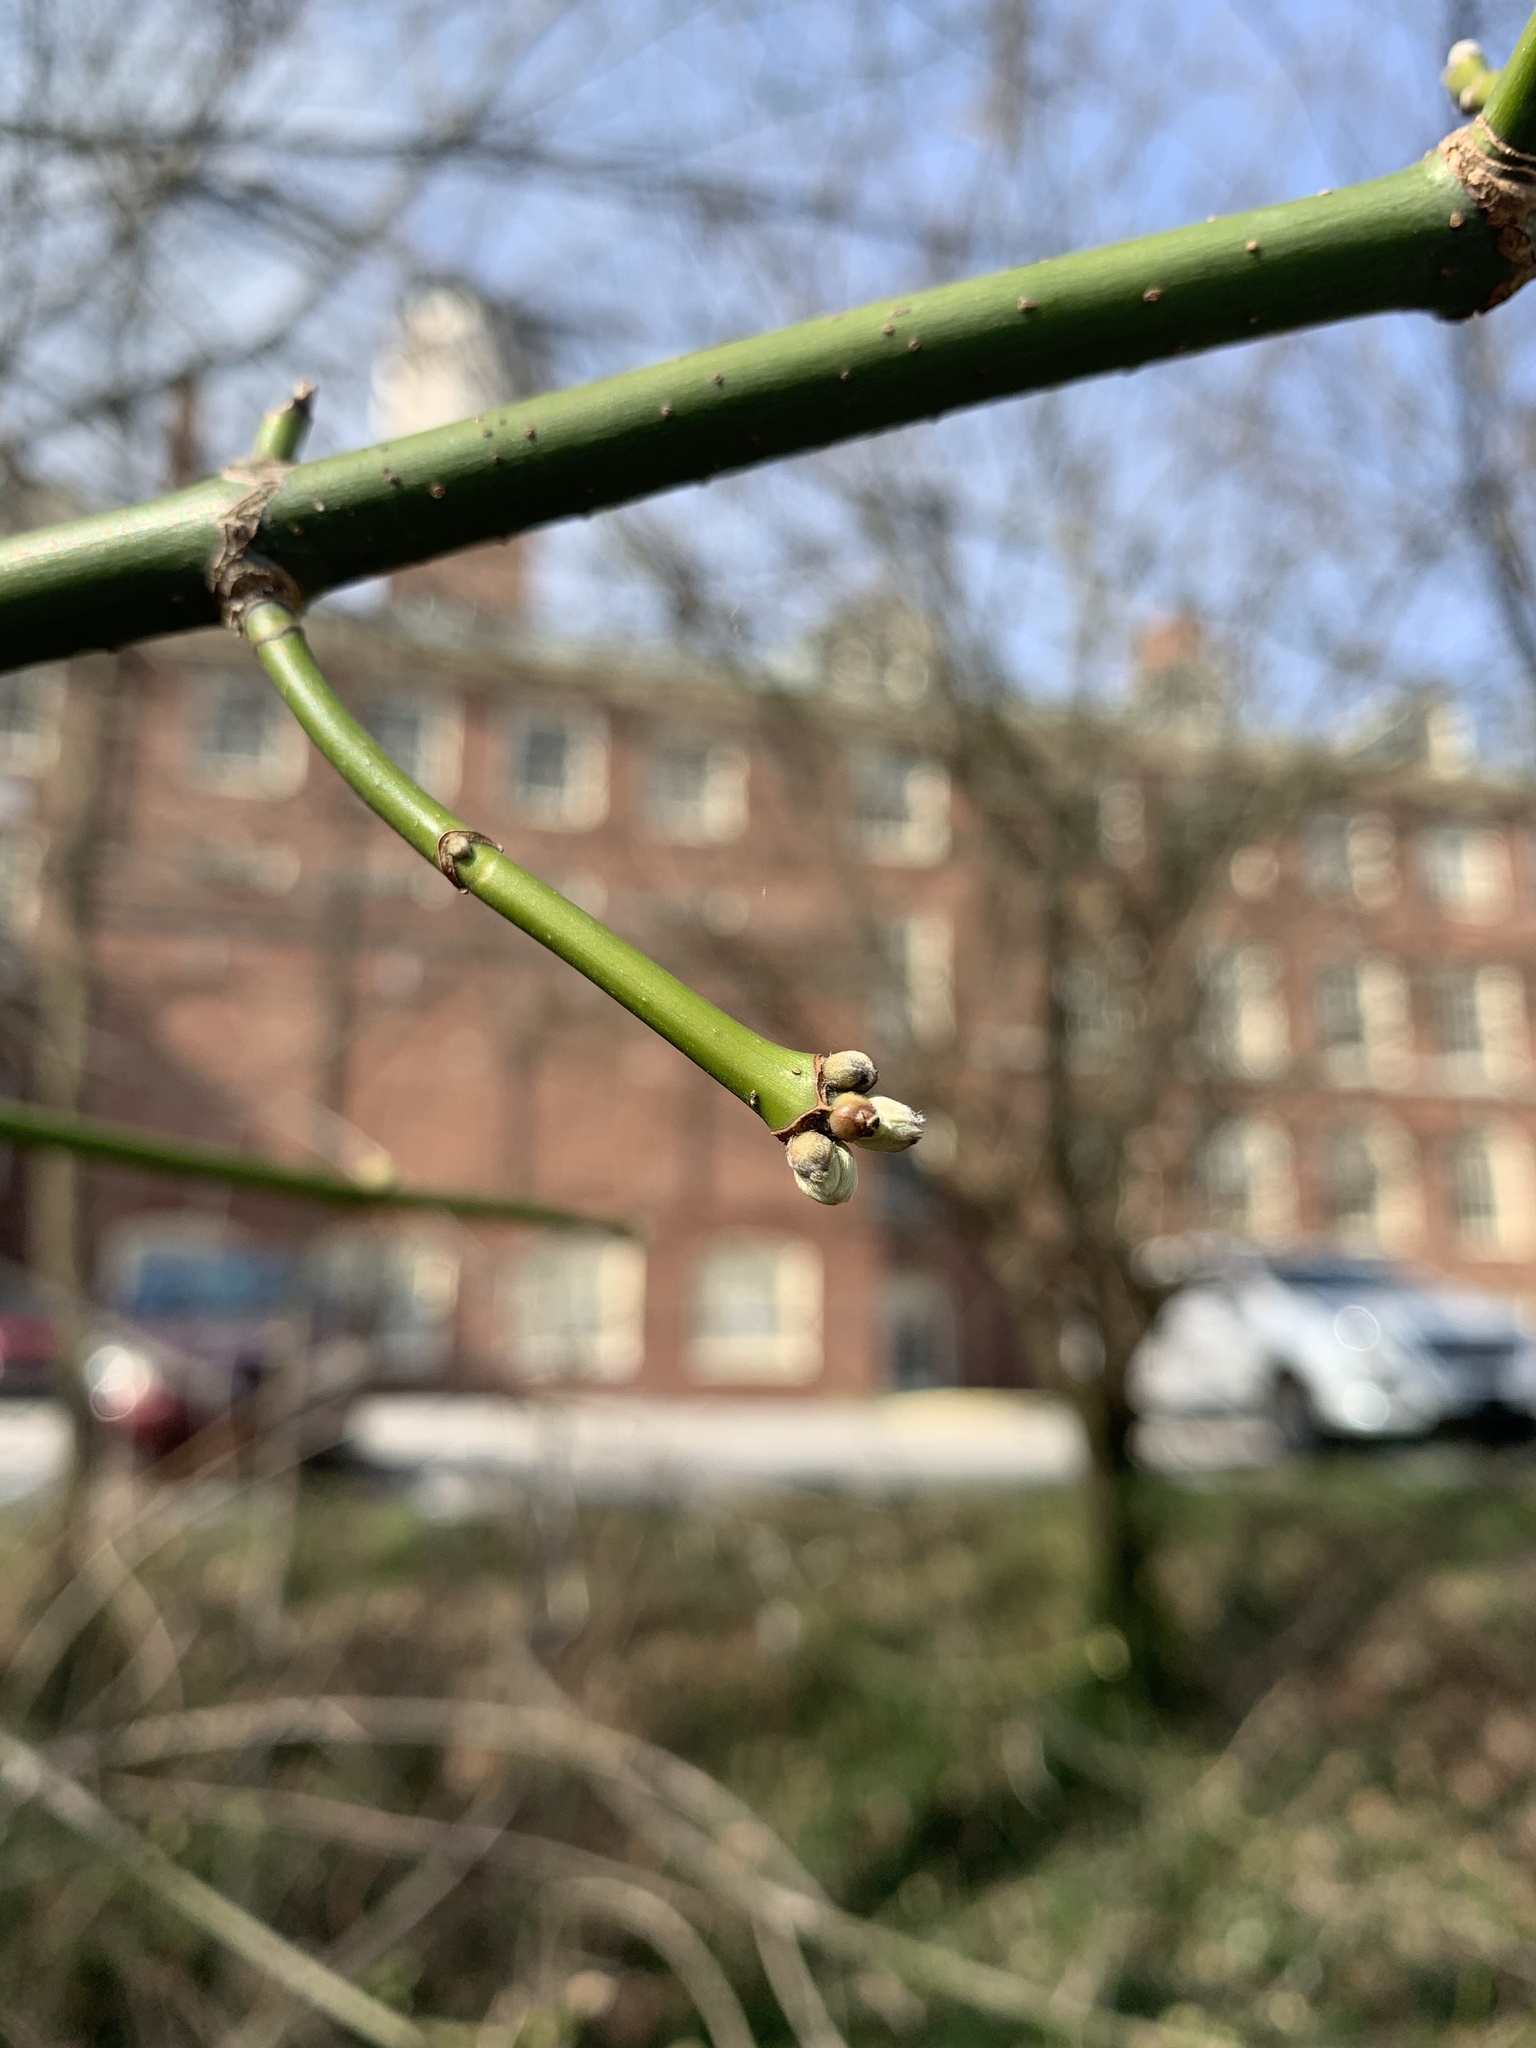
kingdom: Plantae
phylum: Tracheophyta
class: Magnoliopsida
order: Sapindales
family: Sapindaceae
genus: Acer
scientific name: Acer negundo
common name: Ashleaf maple
